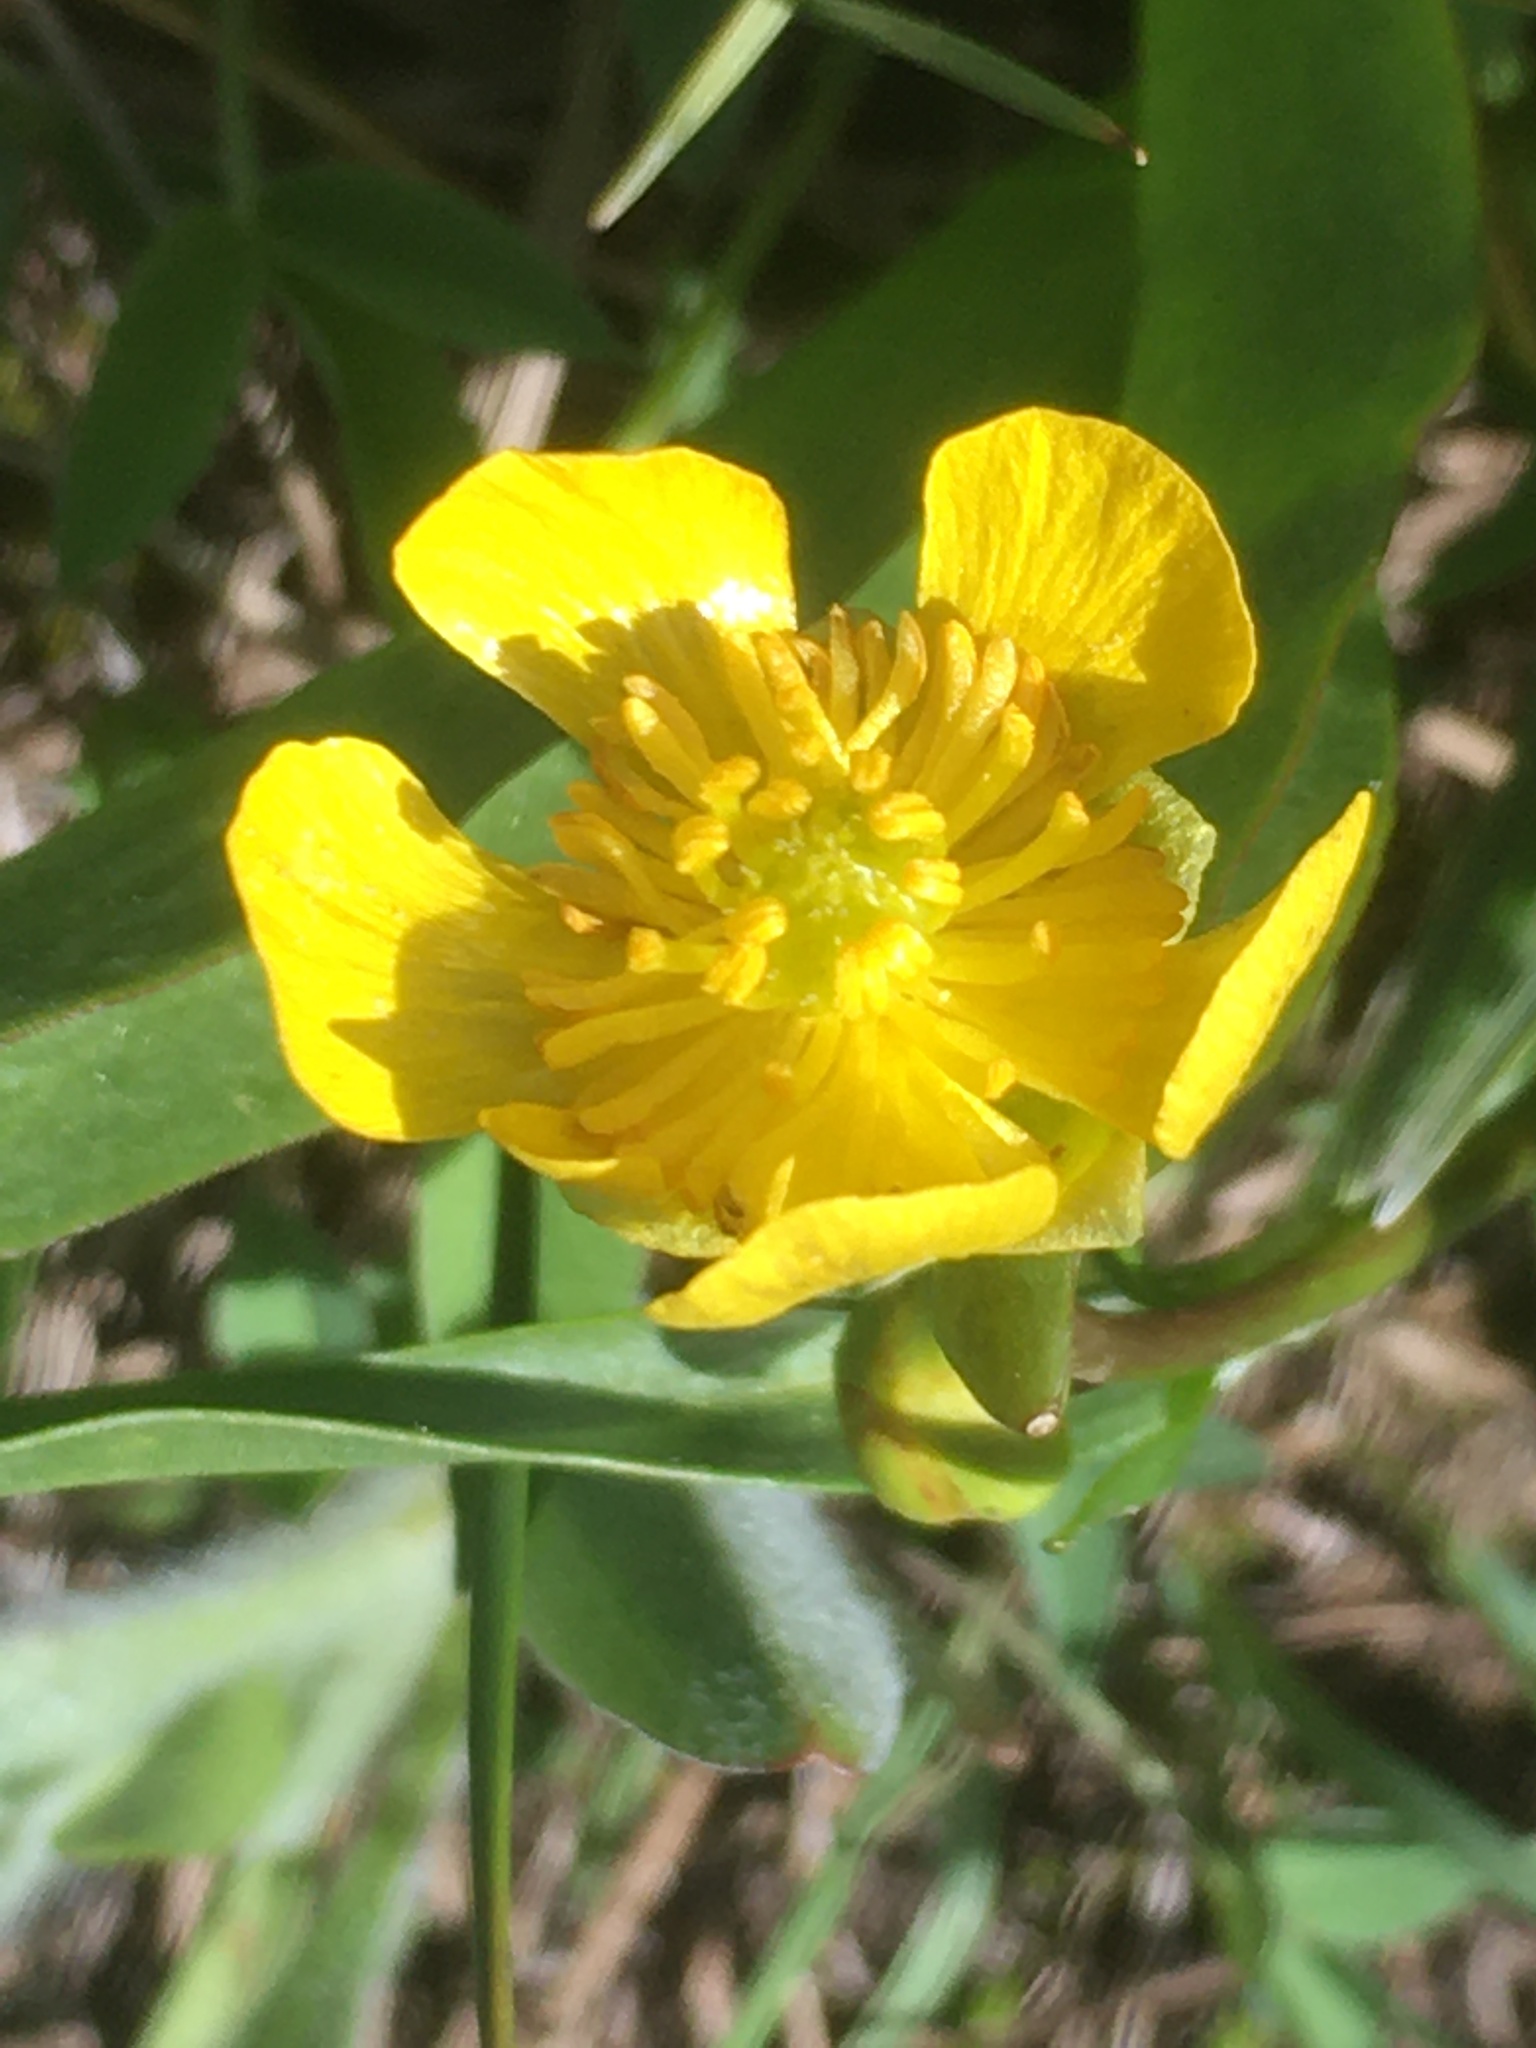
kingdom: Plantae
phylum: Tracheophyta
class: Magnoliopsida
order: Ranunculales
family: Ranunculaceae
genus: Ranunculus
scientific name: Ranunculus alismifolius
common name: Plantain-leaved buttercup
